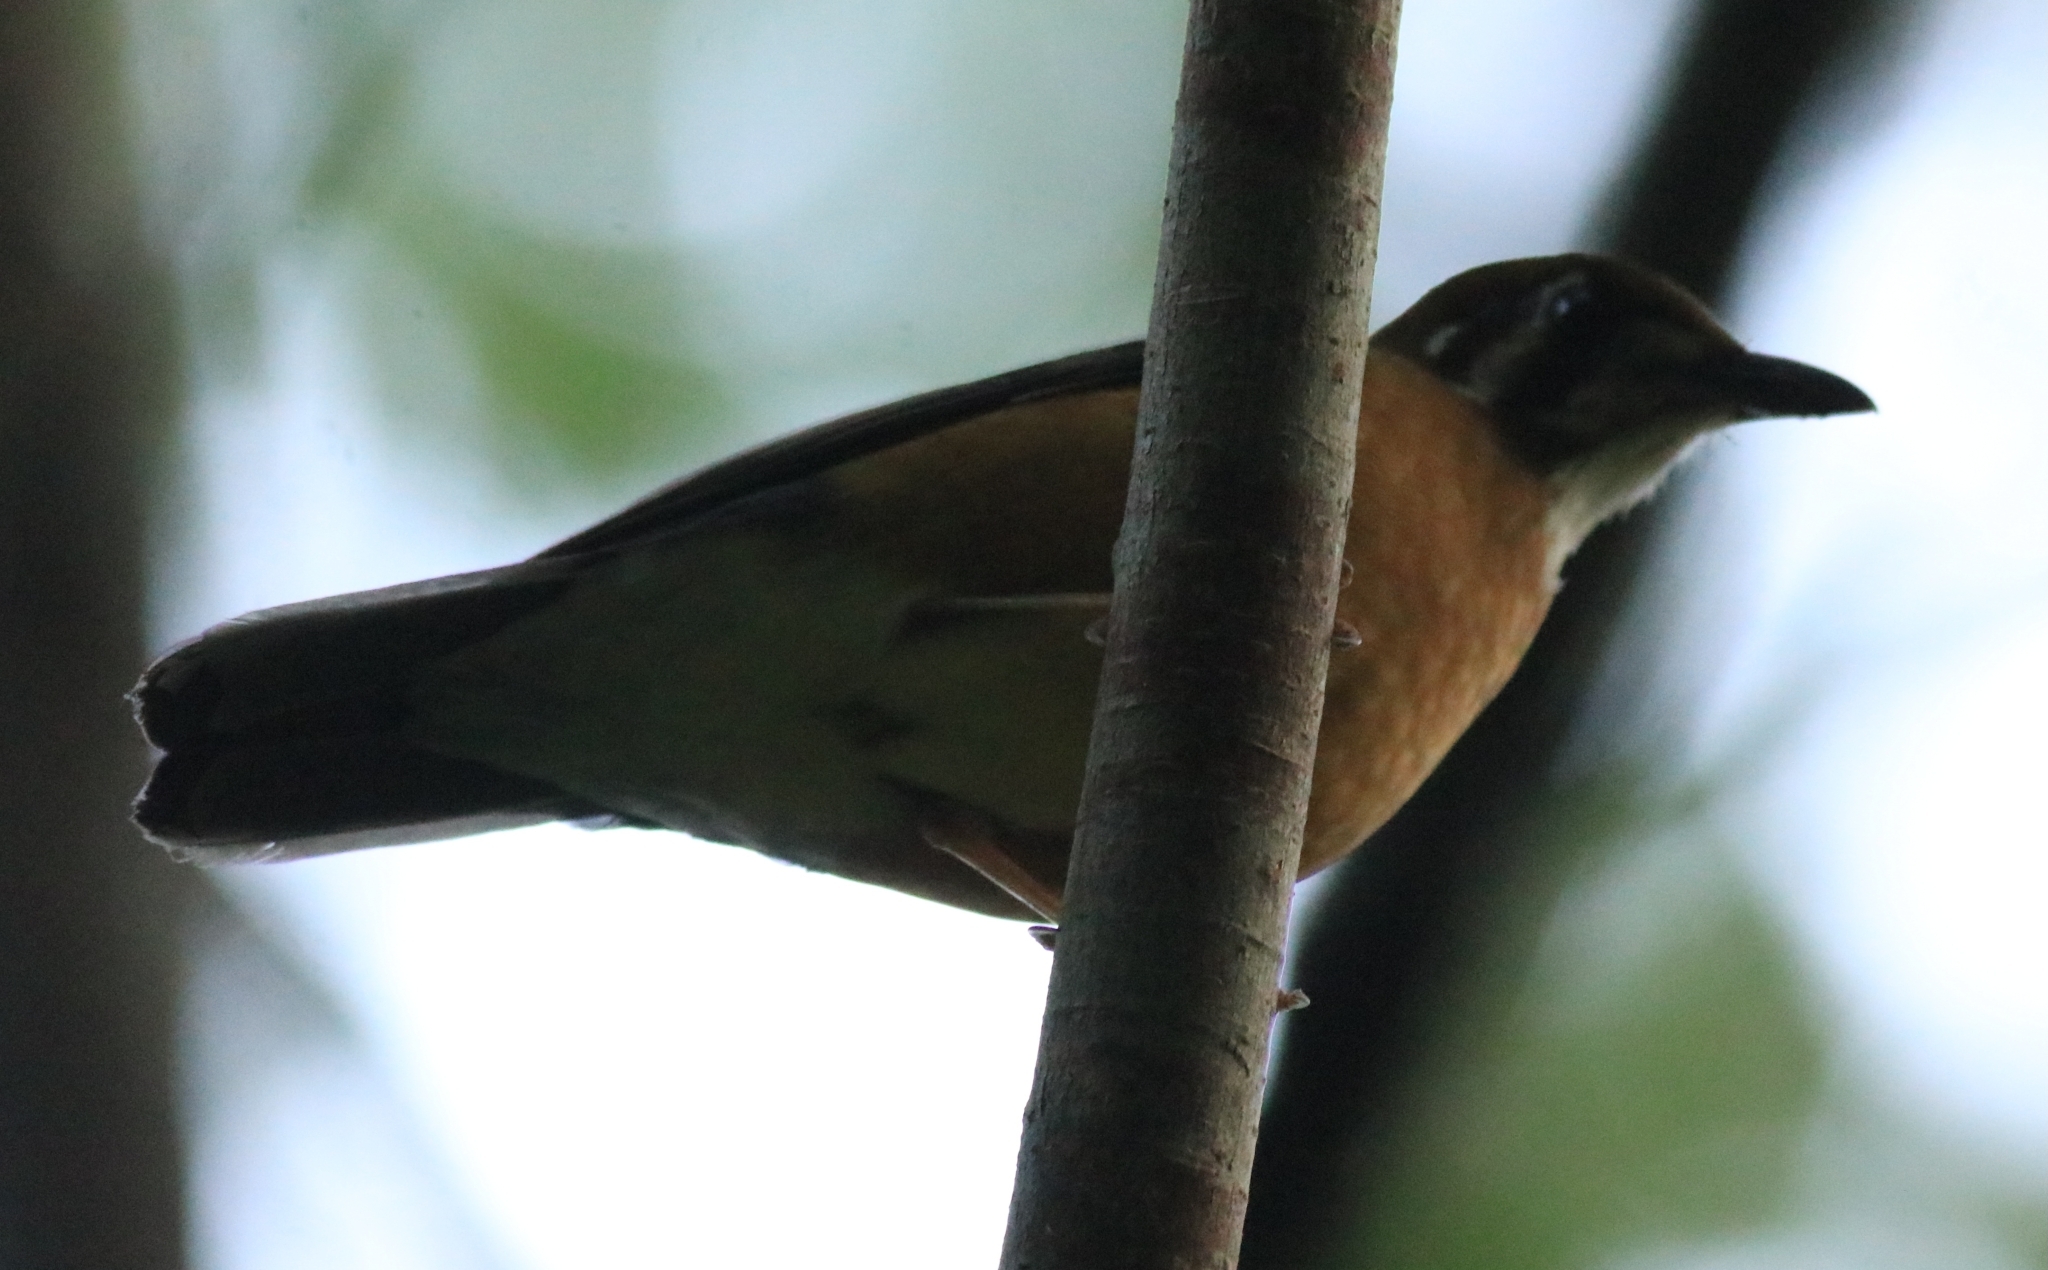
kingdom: Animalia
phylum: Chordata
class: Aves
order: Passeriformes
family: Turdidae
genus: Geokichla
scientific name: Geokichla citrina
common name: Orange-headed thrush
